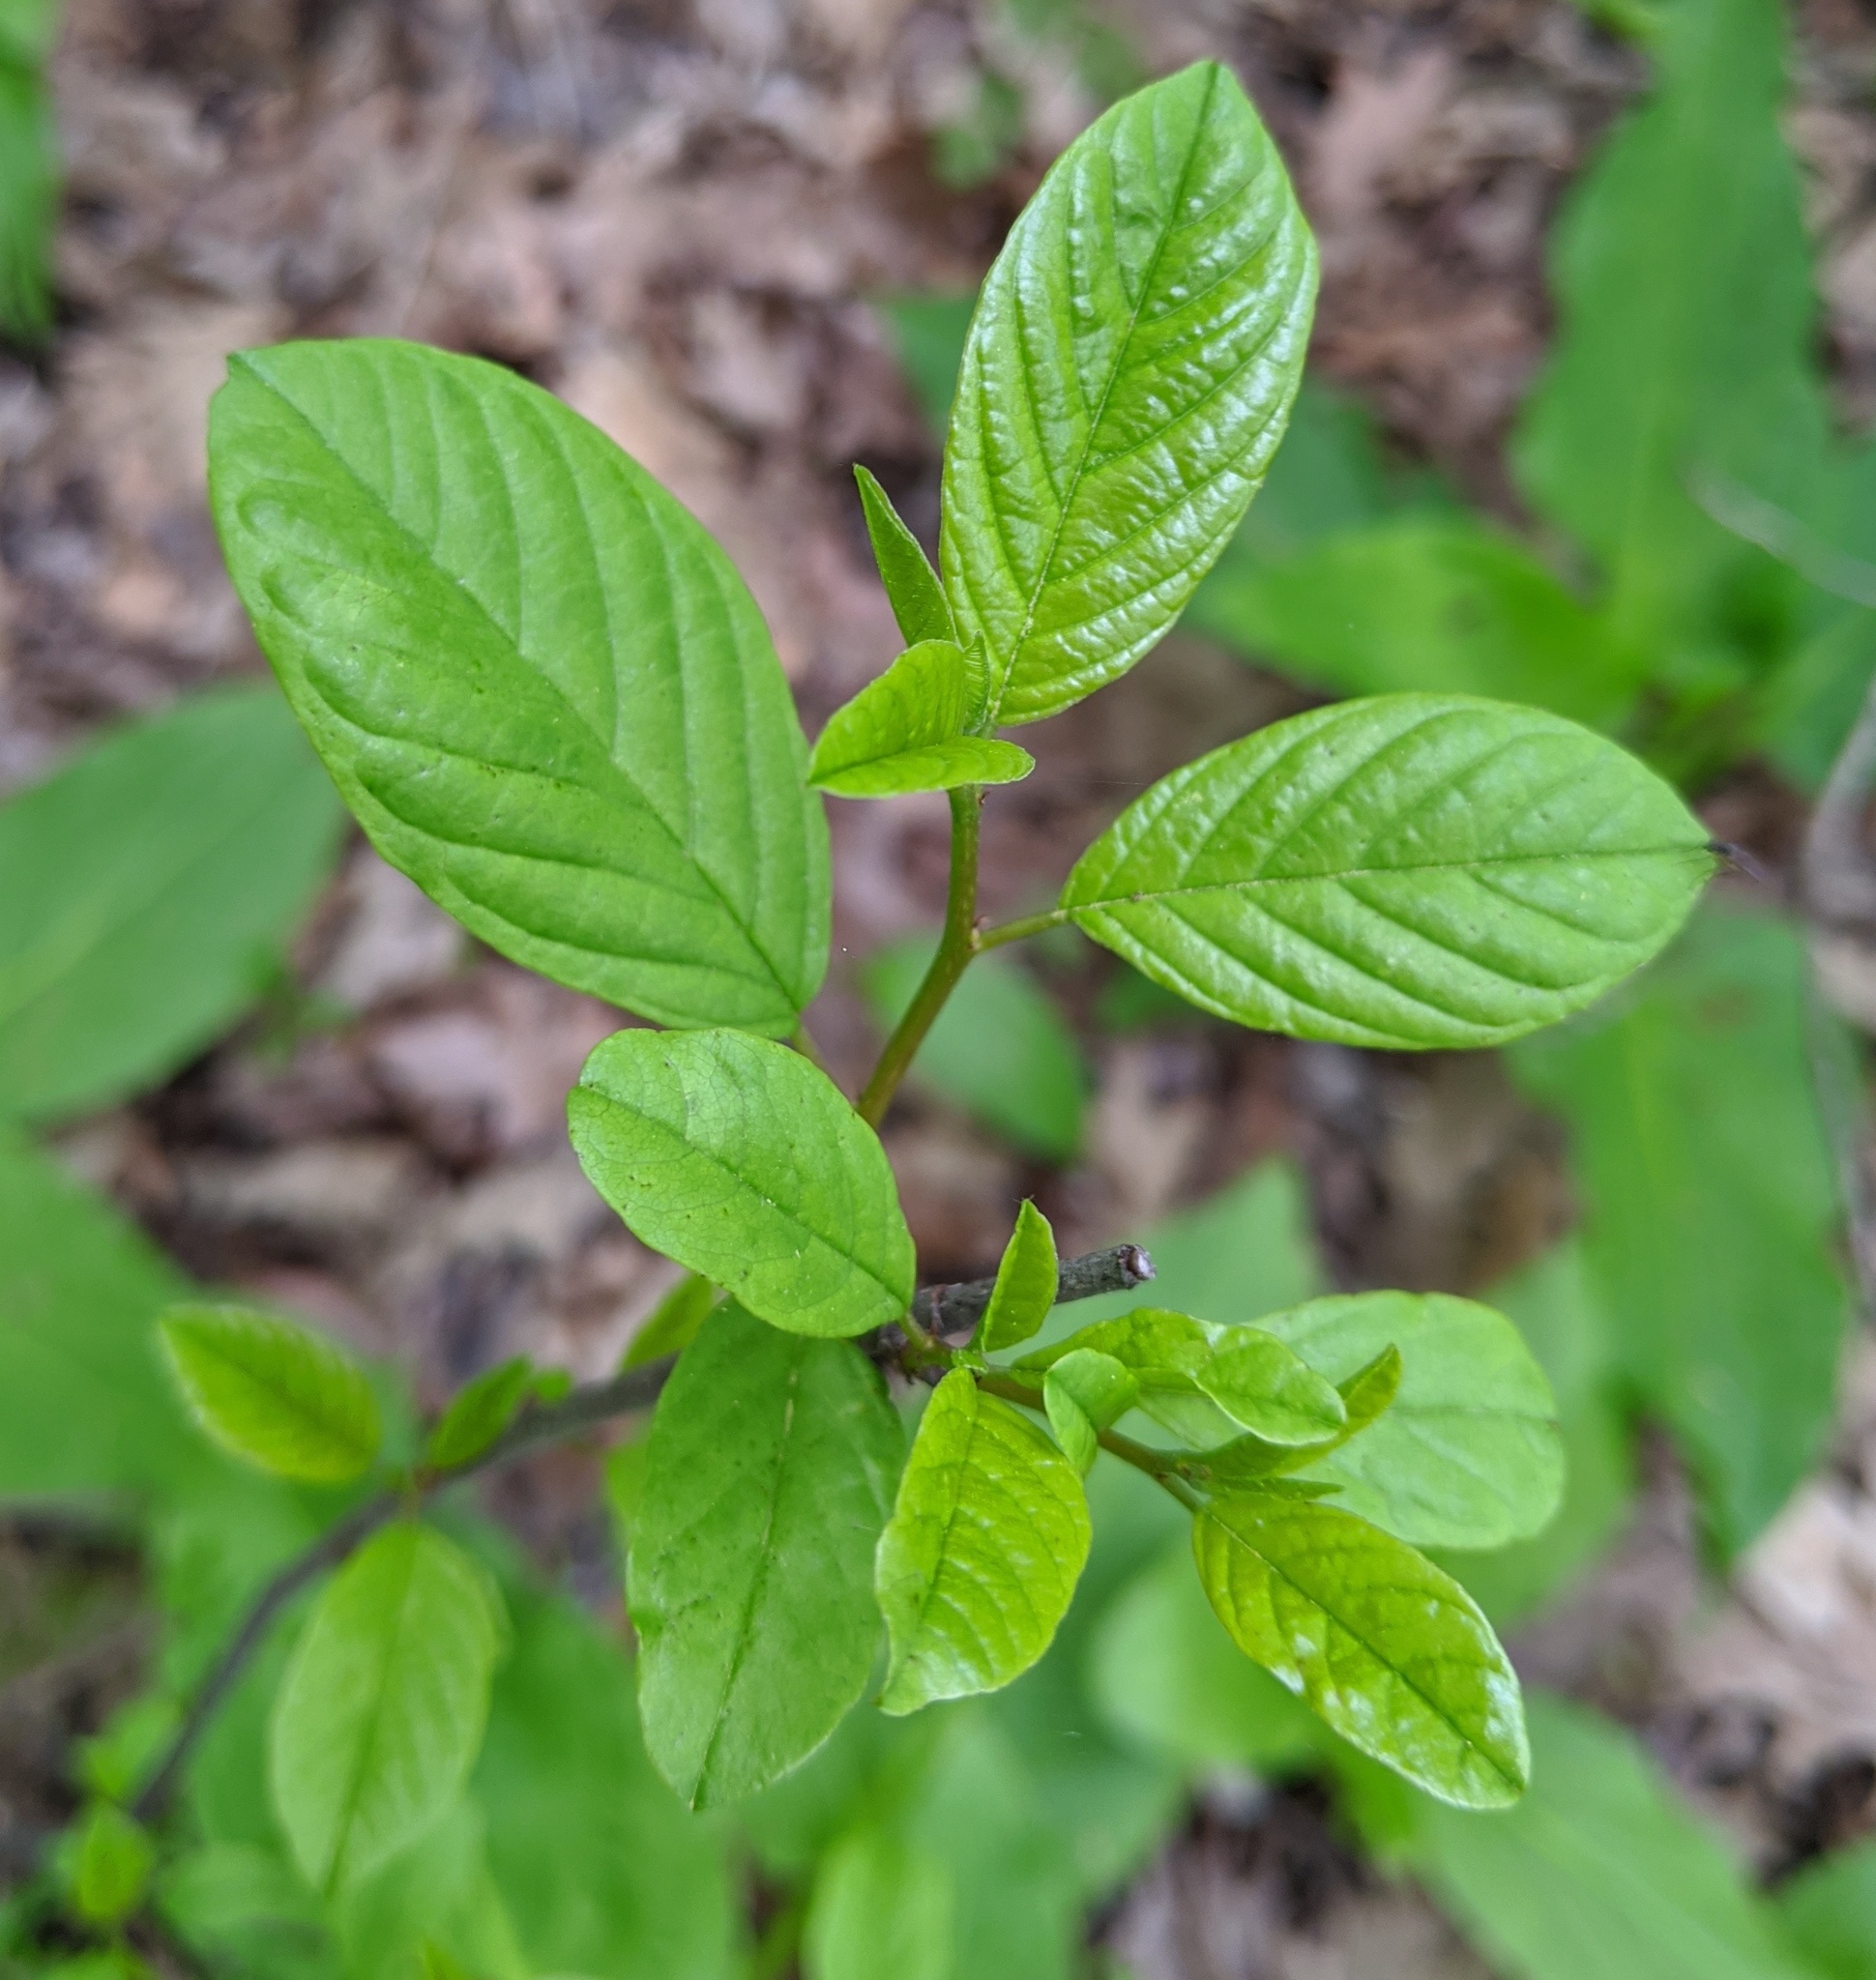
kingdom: Plantae
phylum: Tracheophyta
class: Magnoliopsida
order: Rosales
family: Rhamnaceae
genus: Frangula
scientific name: Frangula alnus
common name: Alder buckthorn
